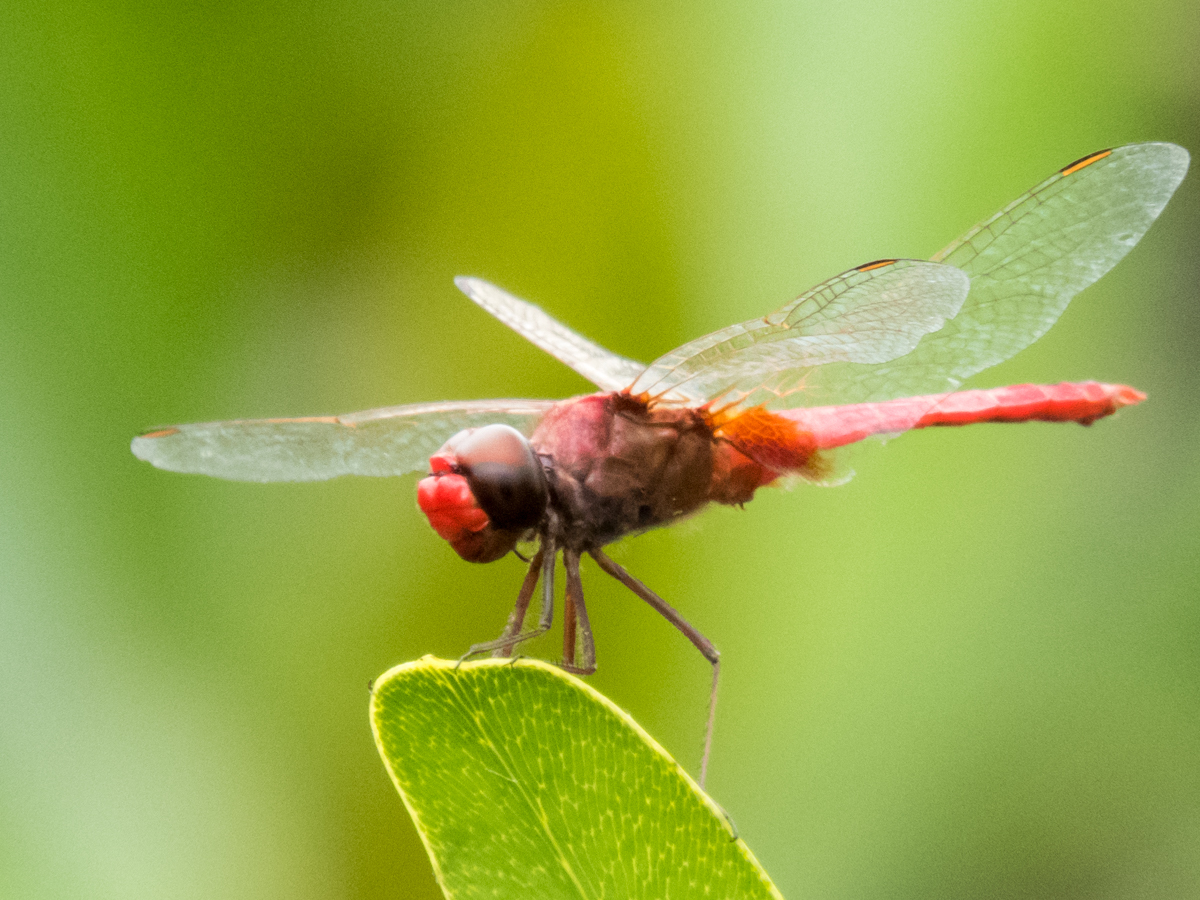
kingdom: Animalia
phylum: Arthropoda
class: Insecta
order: Odonata
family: Libellulidae
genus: Urothemis
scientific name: Urothemis signata
